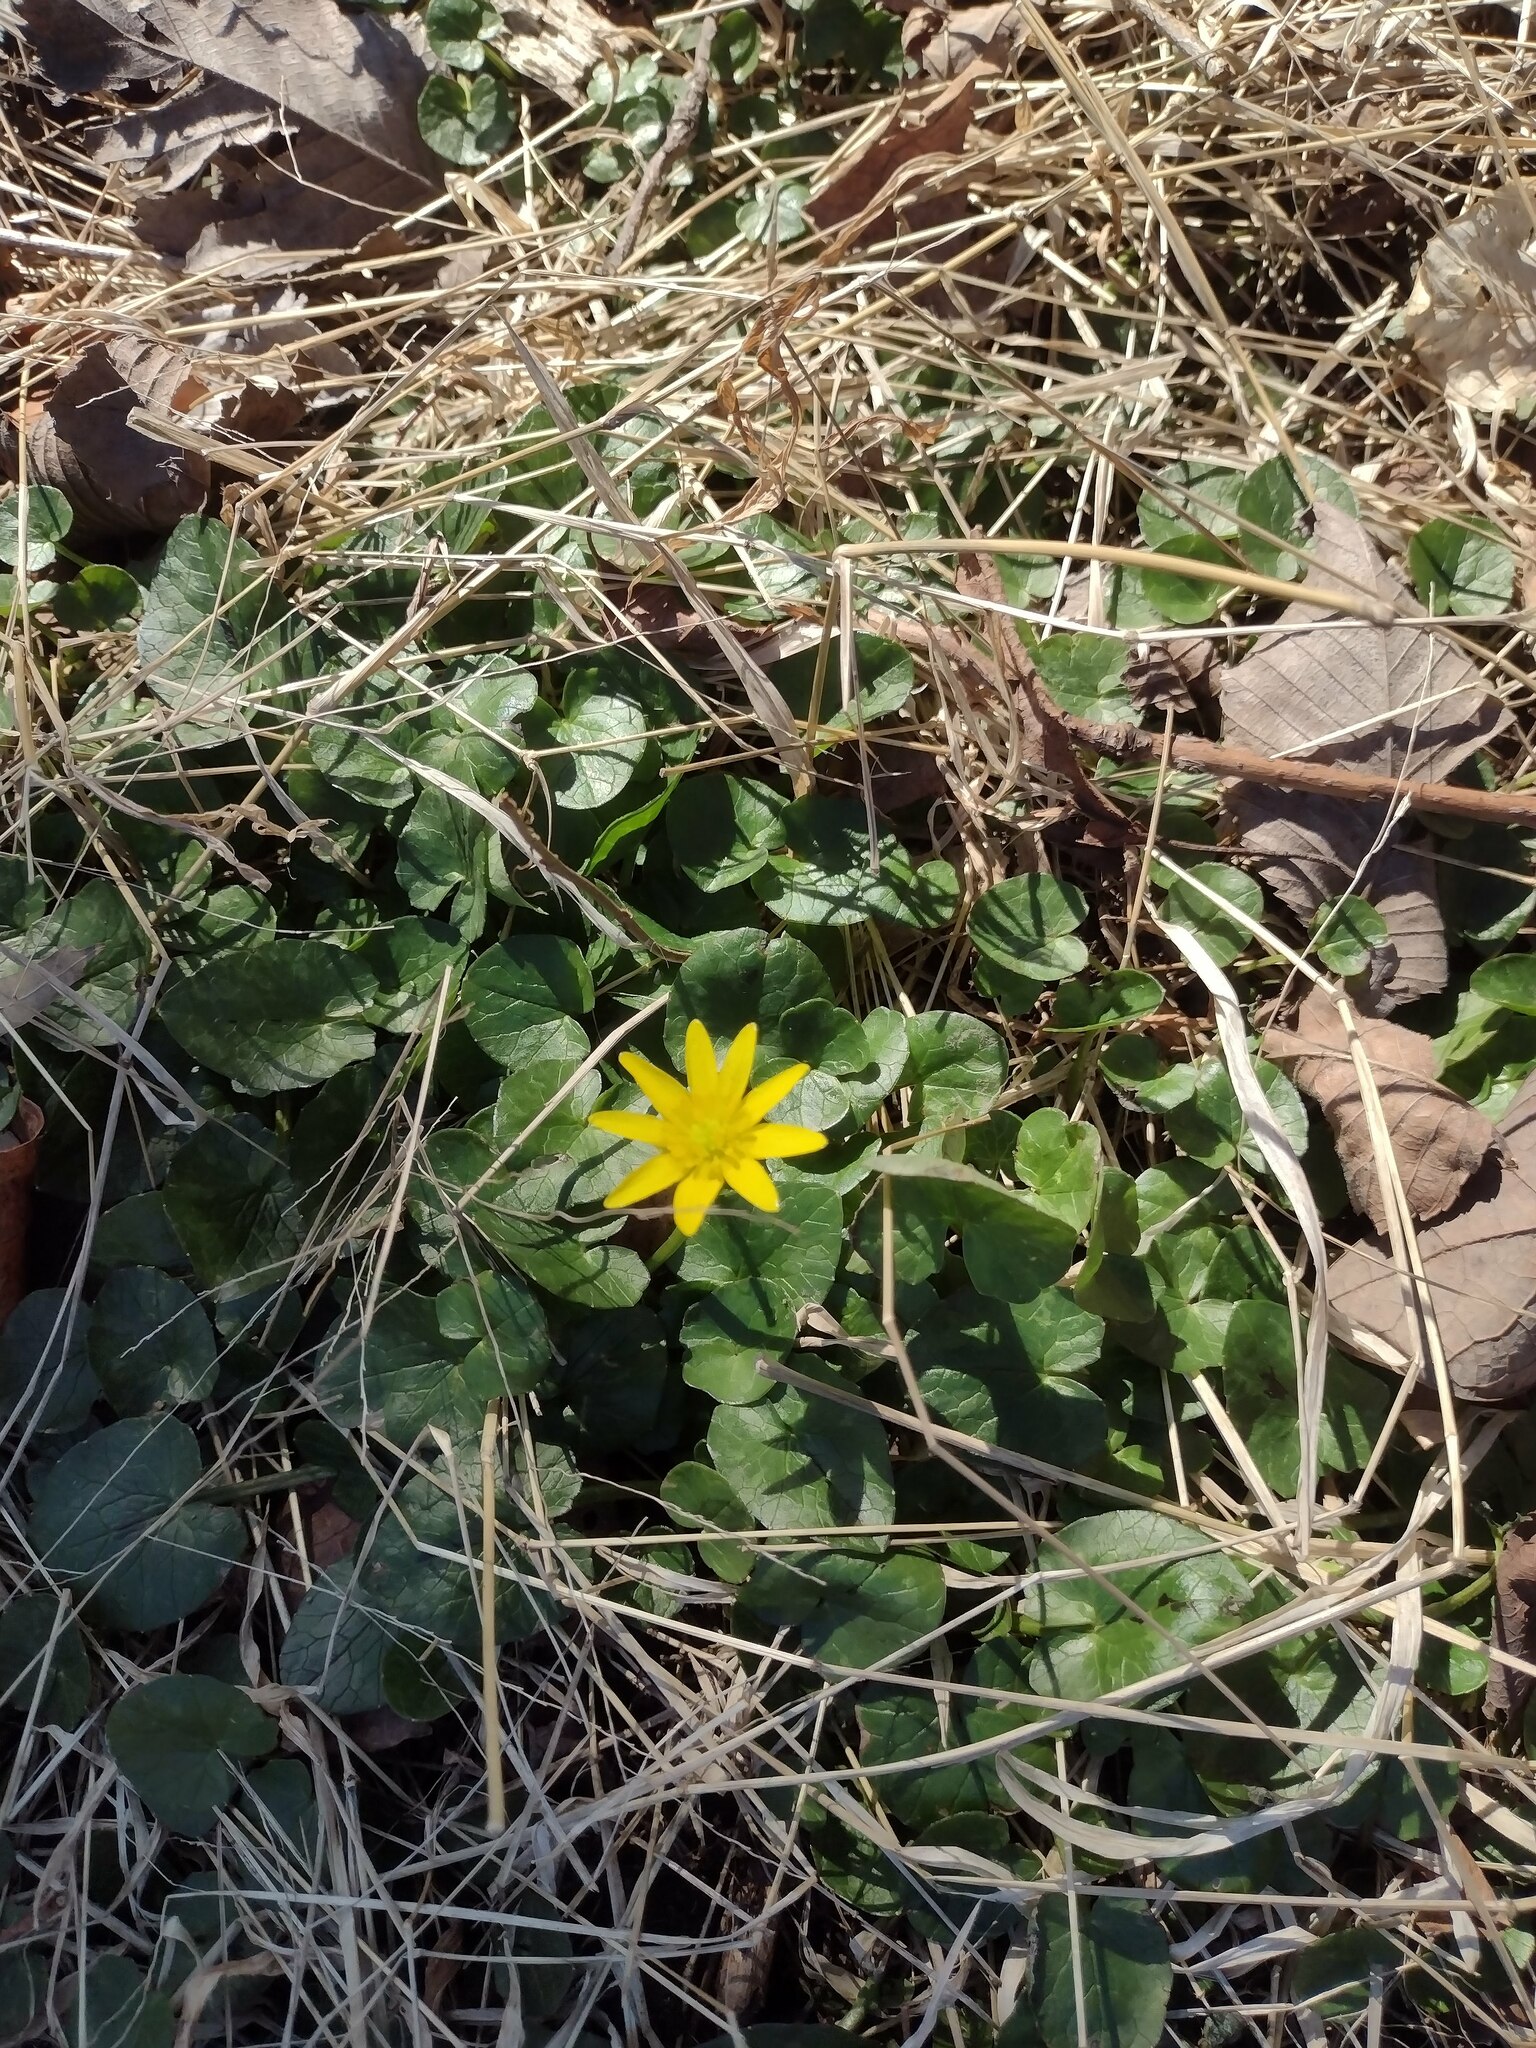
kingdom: Plantae
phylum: Tracheophyta
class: Magnoliopsida
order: Ranunculales
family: Ranunculaceae
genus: Ficaria
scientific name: Ficaria verna
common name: Lesser celandine
